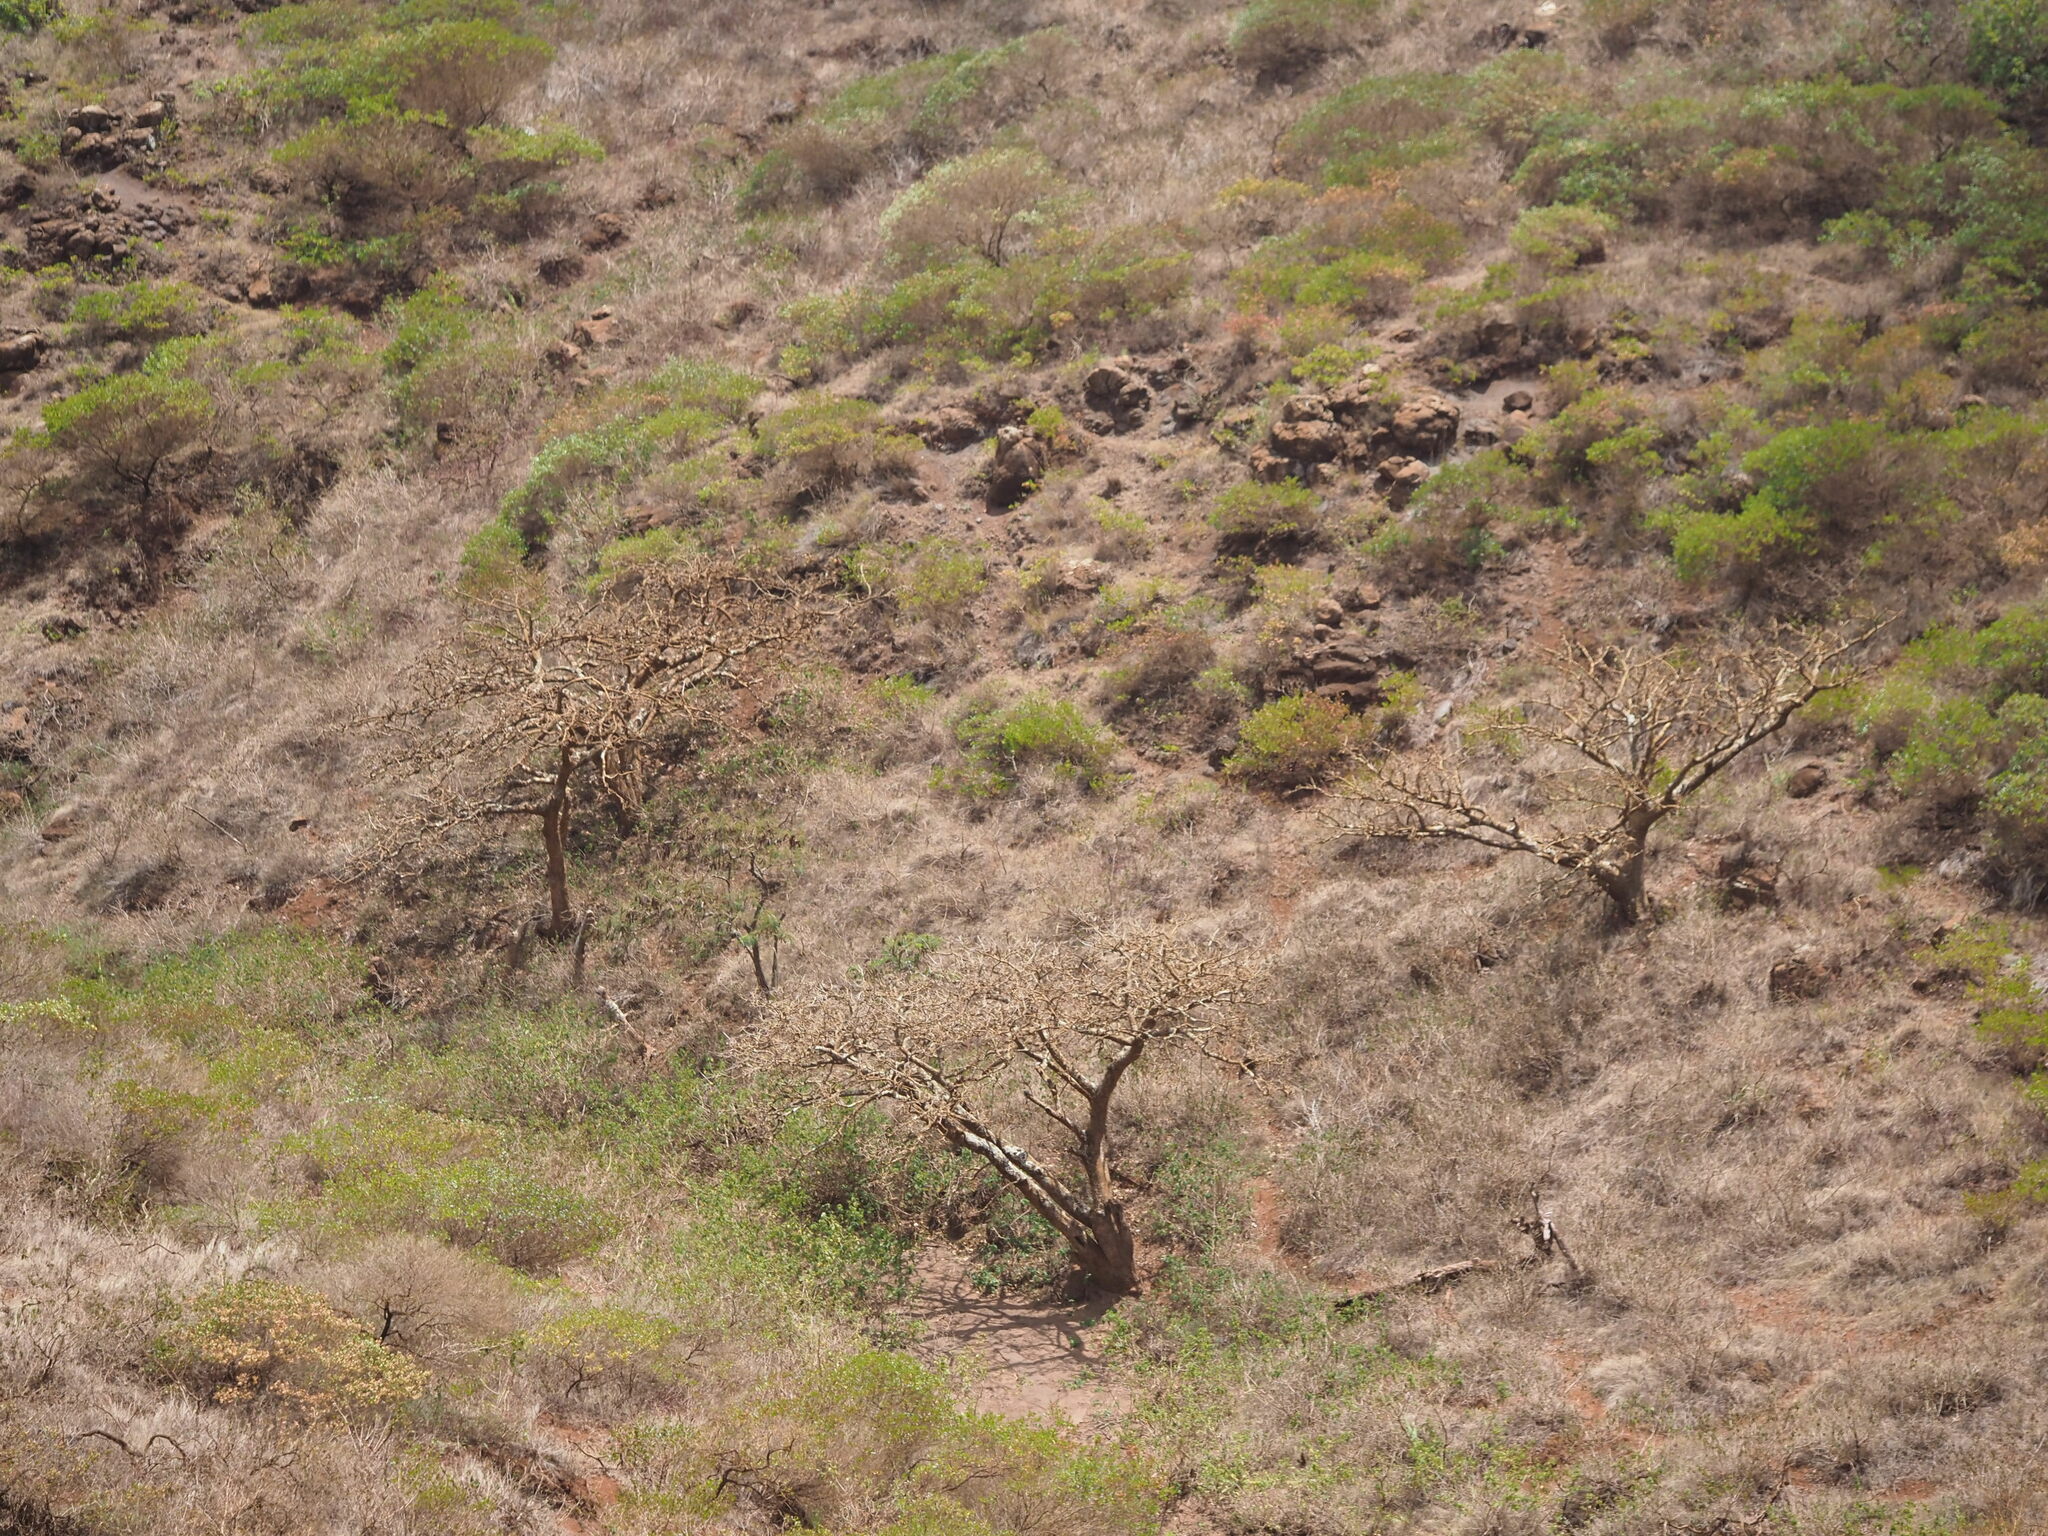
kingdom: Plantae
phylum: Tracheophyta
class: Magnoliopsida
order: Fabales
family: Fabaceae
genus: Erythrina
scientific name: Erythrina sandwicensis
